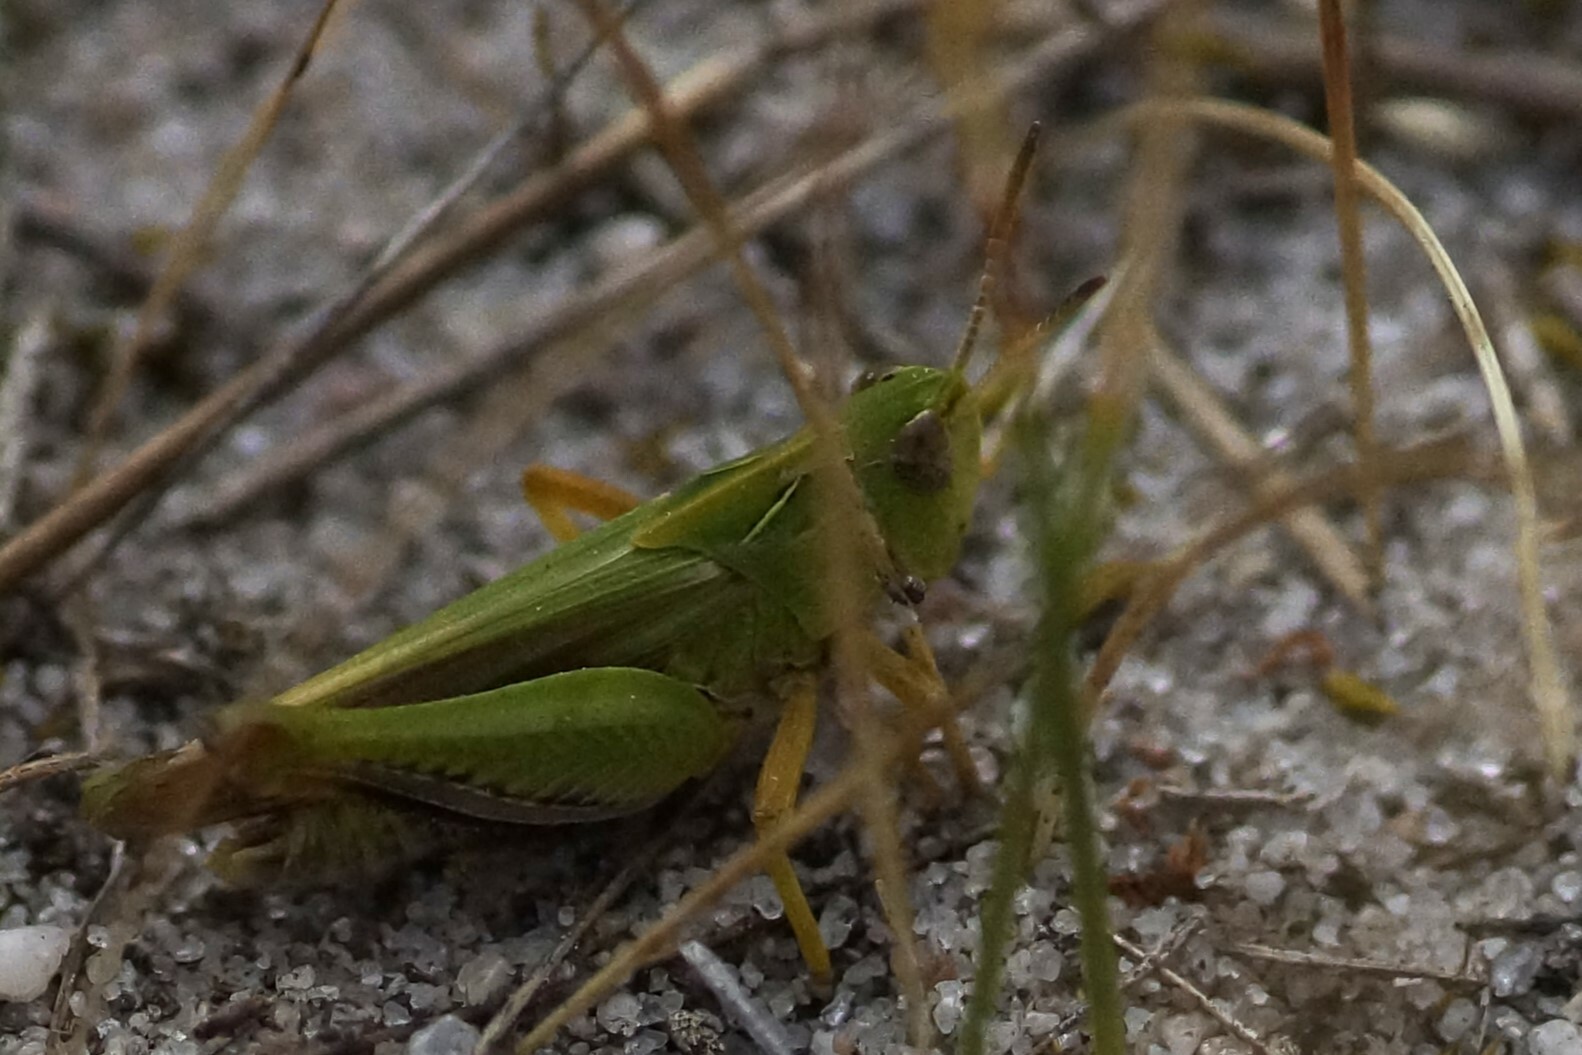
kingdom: Animalia
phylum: Arthropoda
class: Insecta
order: Orthoptera
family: Acrididae
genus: Perala
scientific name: Perala viridis
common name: Spring buzzer
